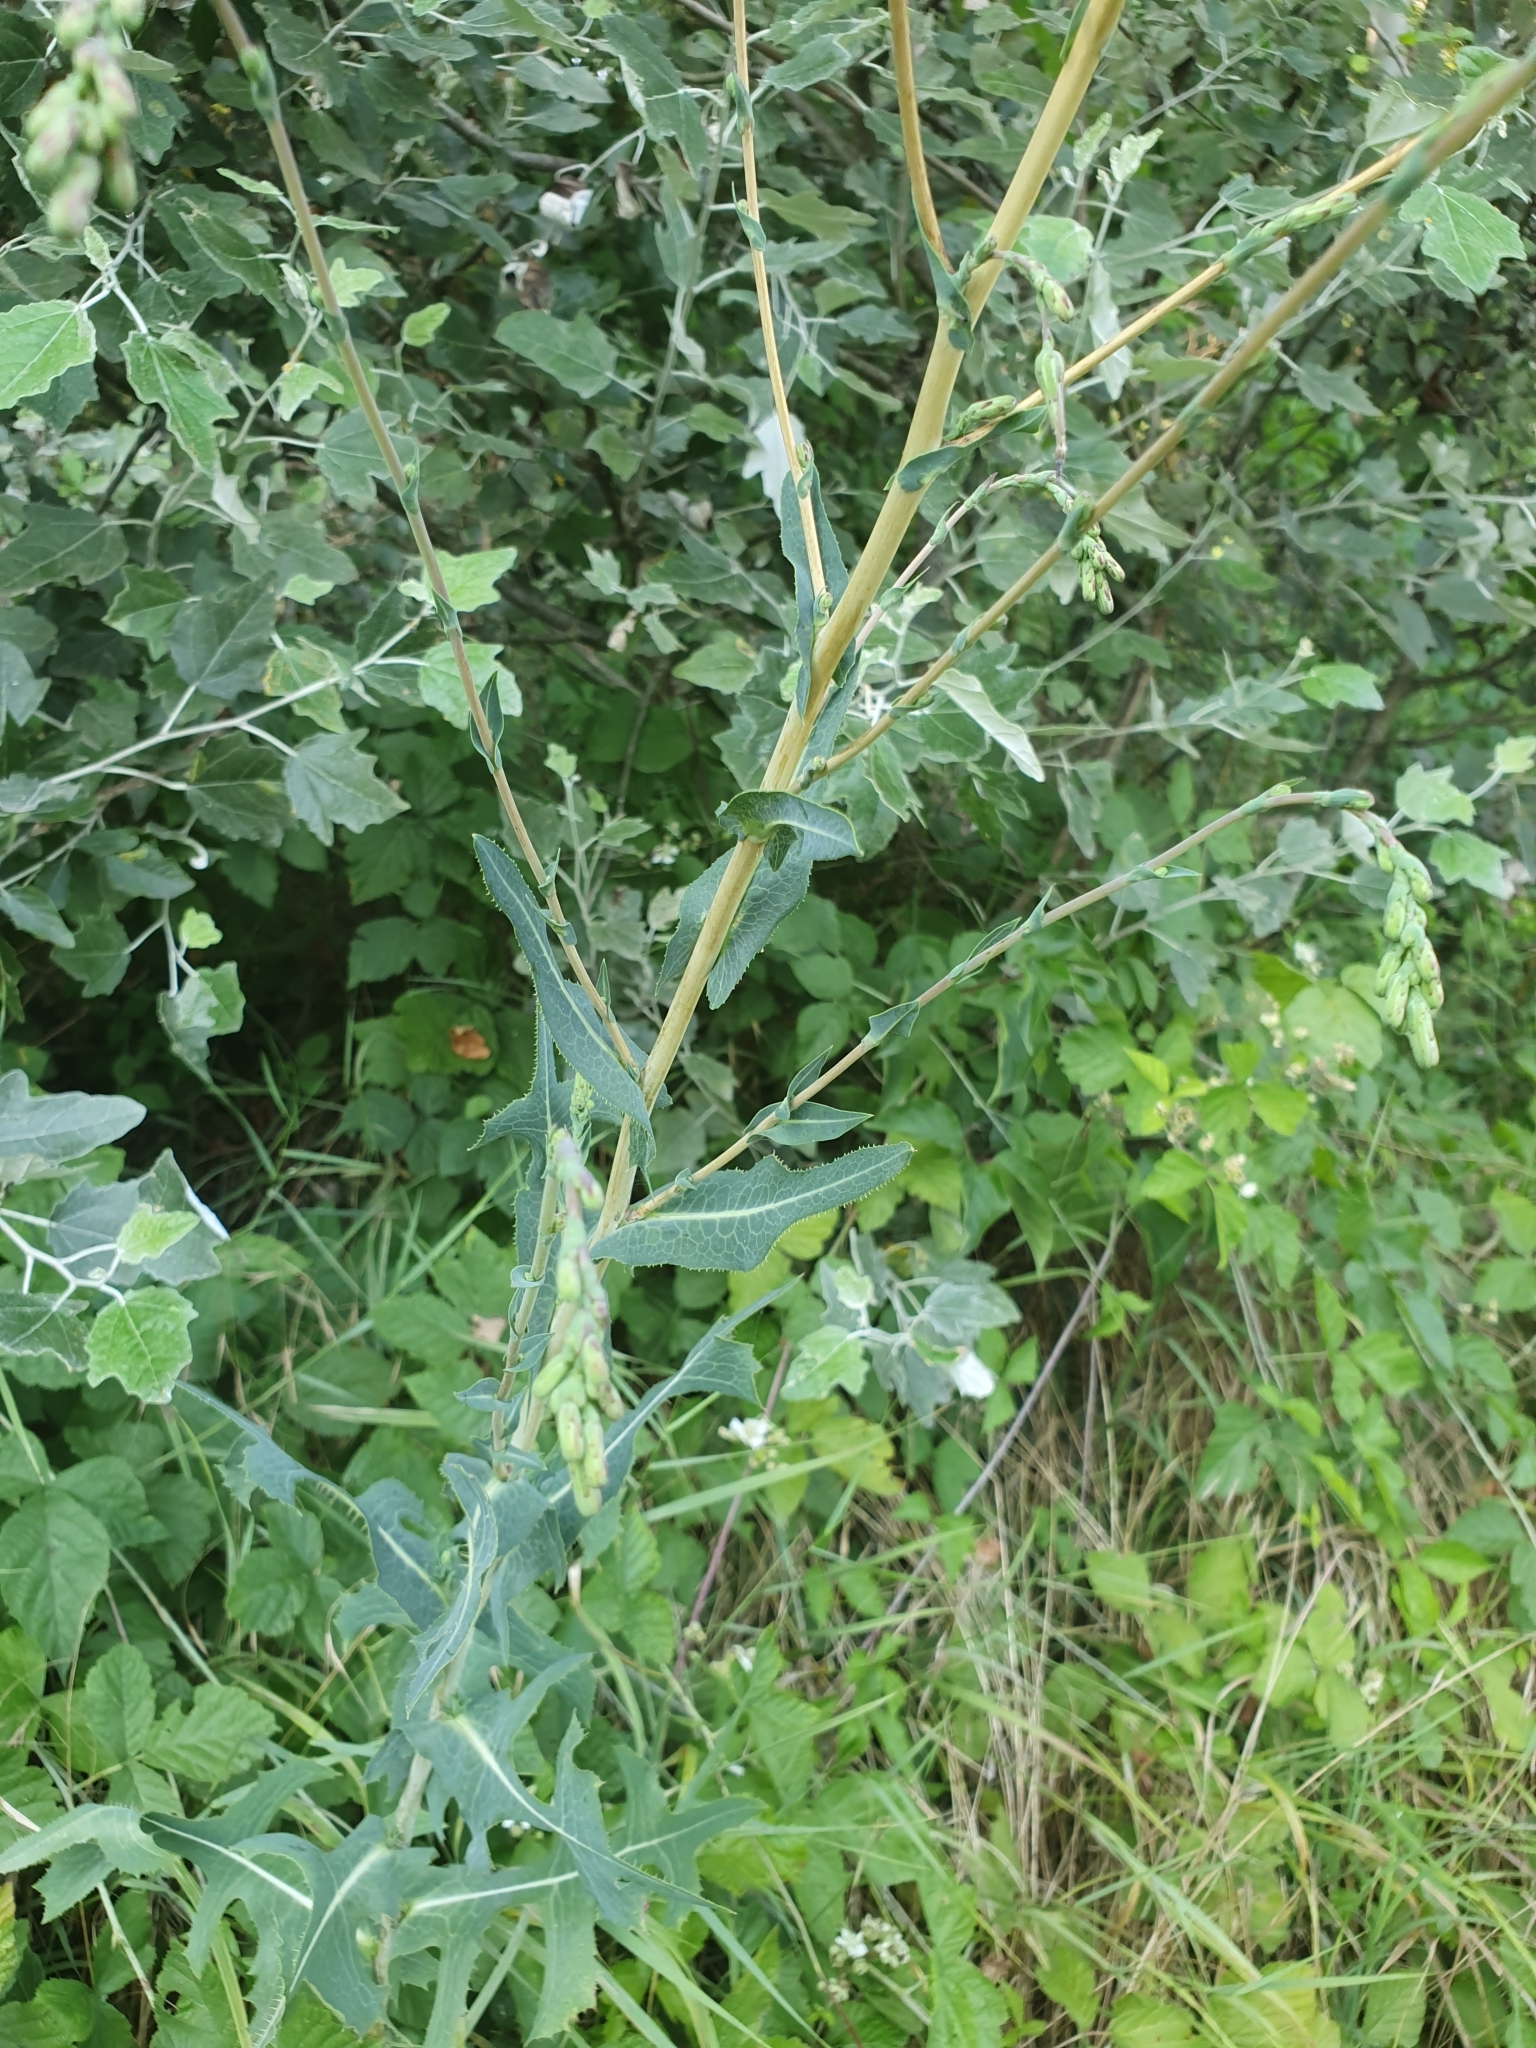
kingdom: Plantae
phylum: Tracheophyta
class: Magnoliopsida
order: Asterales
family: Asteraceae
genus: Lactuca
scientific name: Lactuca serriola
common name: Prickly lettuce
